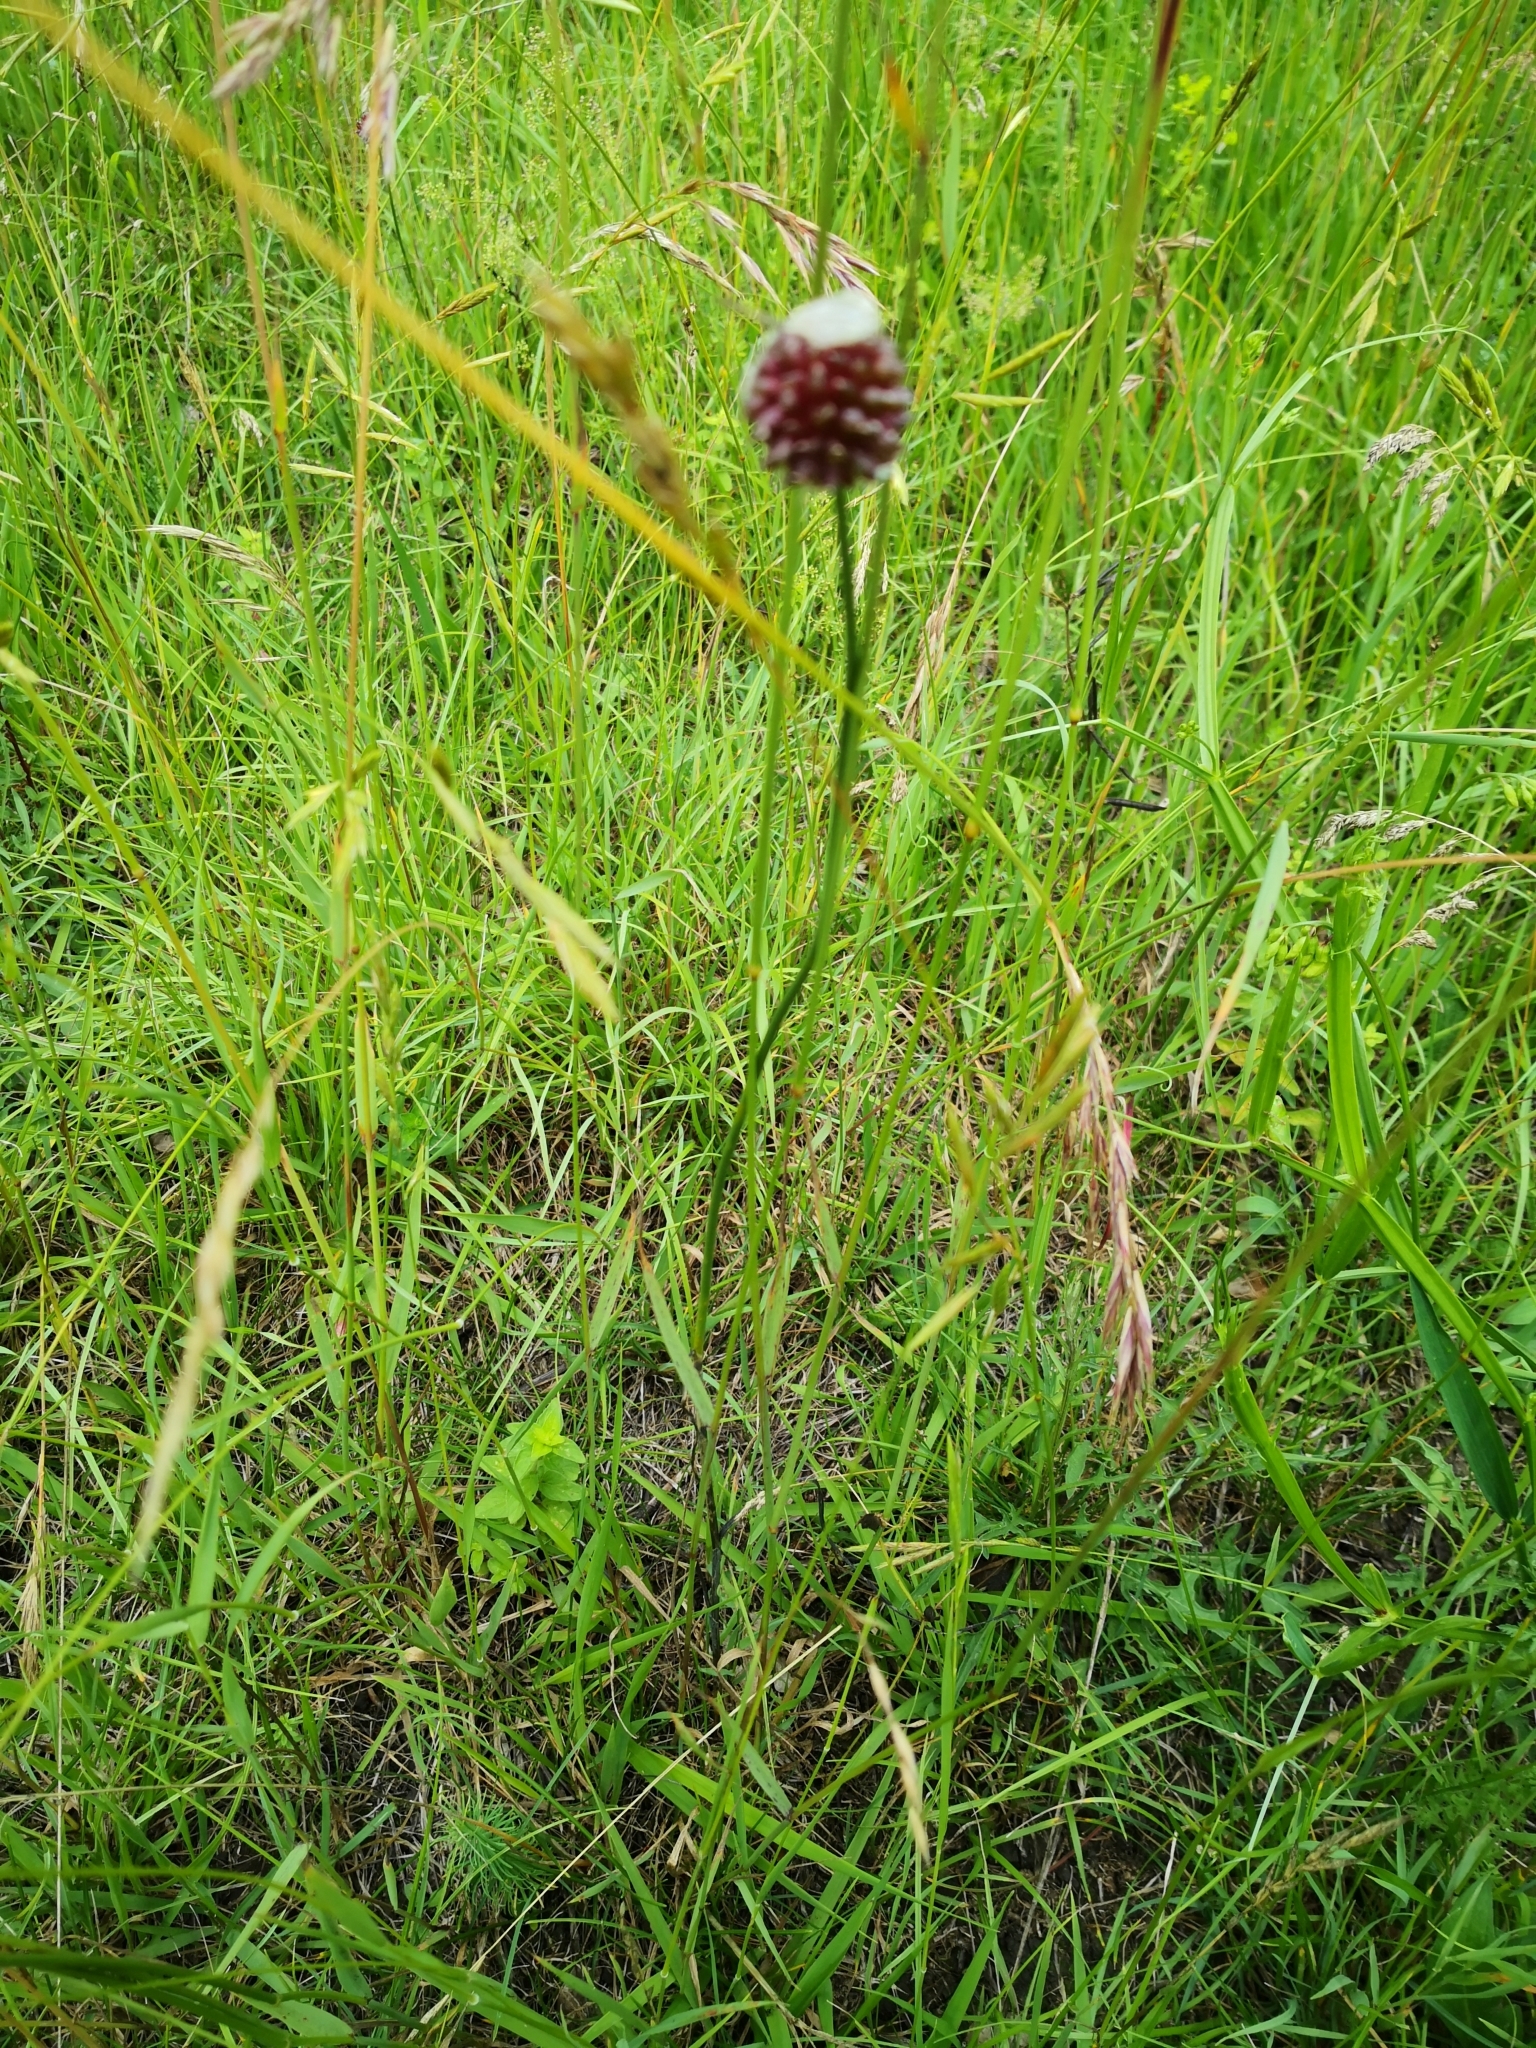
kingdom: Plantae
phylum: Tracheophyta
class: Liliopsida
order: Asparagales
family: Amaryllidaceae
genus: Allium
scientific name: Allium vineale
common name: Crow garlic
